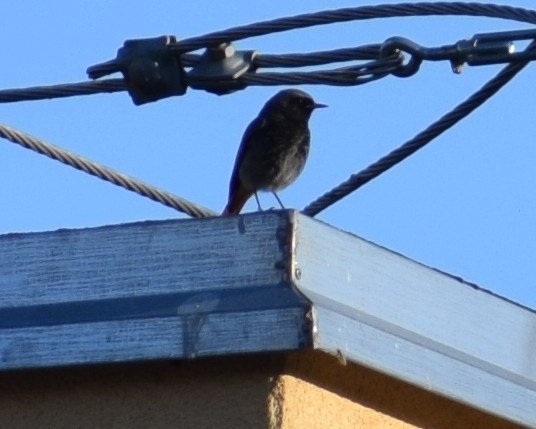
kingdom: Animalia
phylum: Chordata
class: Aves
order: Passeriformes
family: Muscicapidae
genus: Phoenicurus
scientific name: Phoenicurus ochruros
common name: Black redstart
